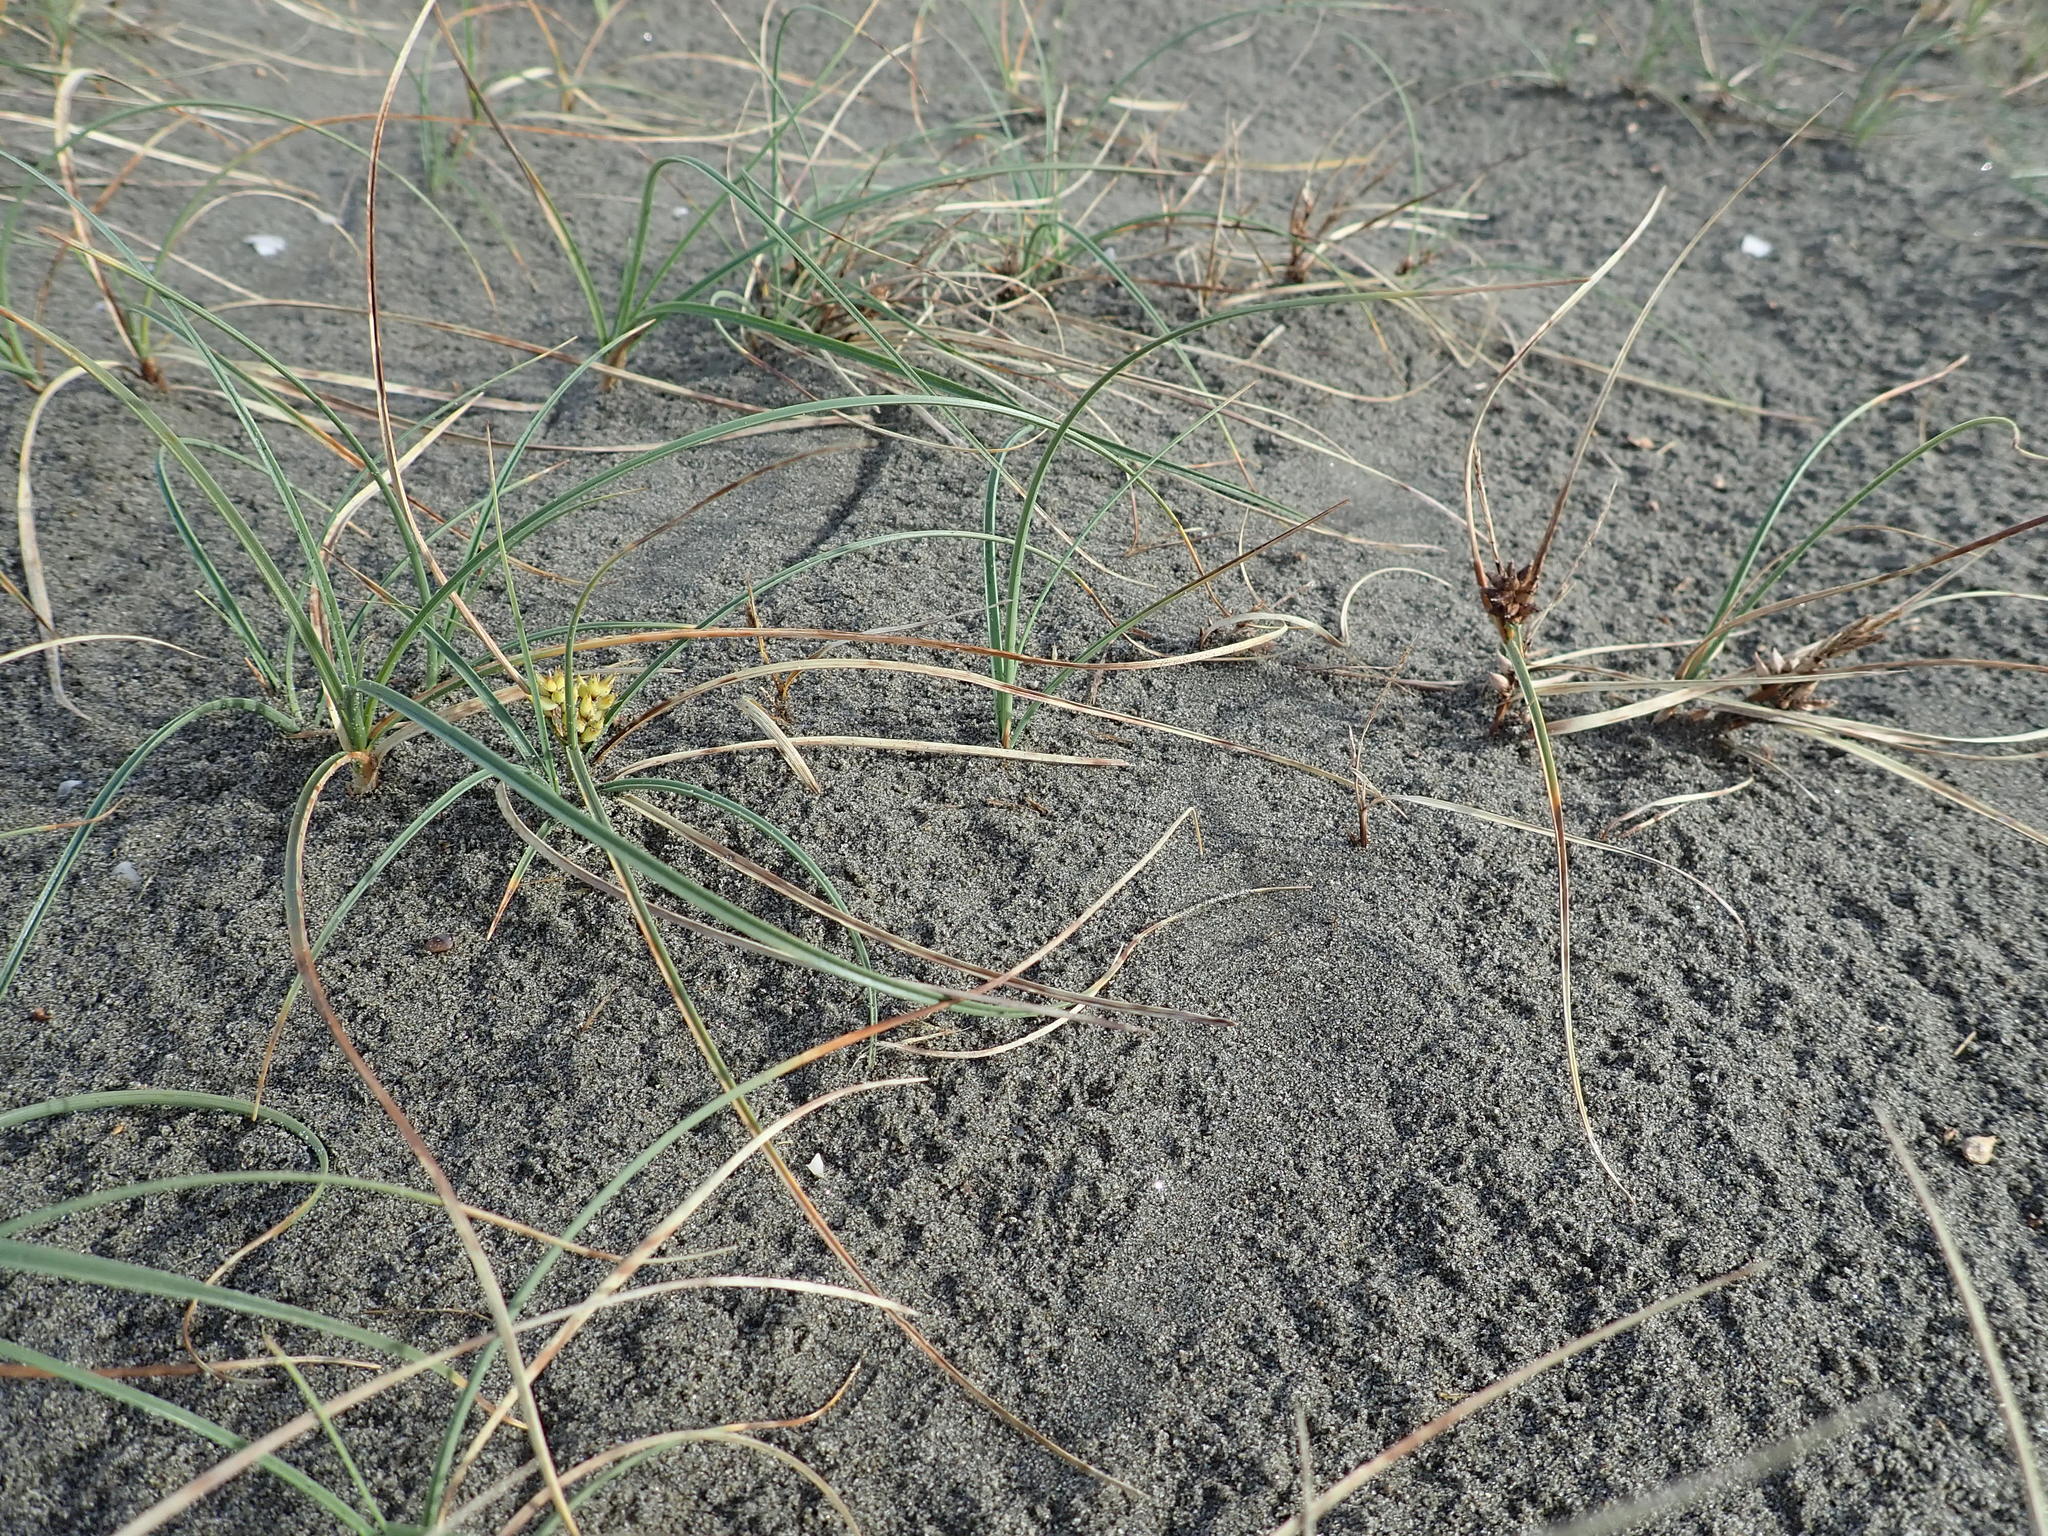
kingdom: Plantae
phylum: Tracheophyta
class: Liliopsida
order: Poales
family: Cyperaceae
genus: Carex
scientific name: Carex pumila
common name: Dwarf sedge
